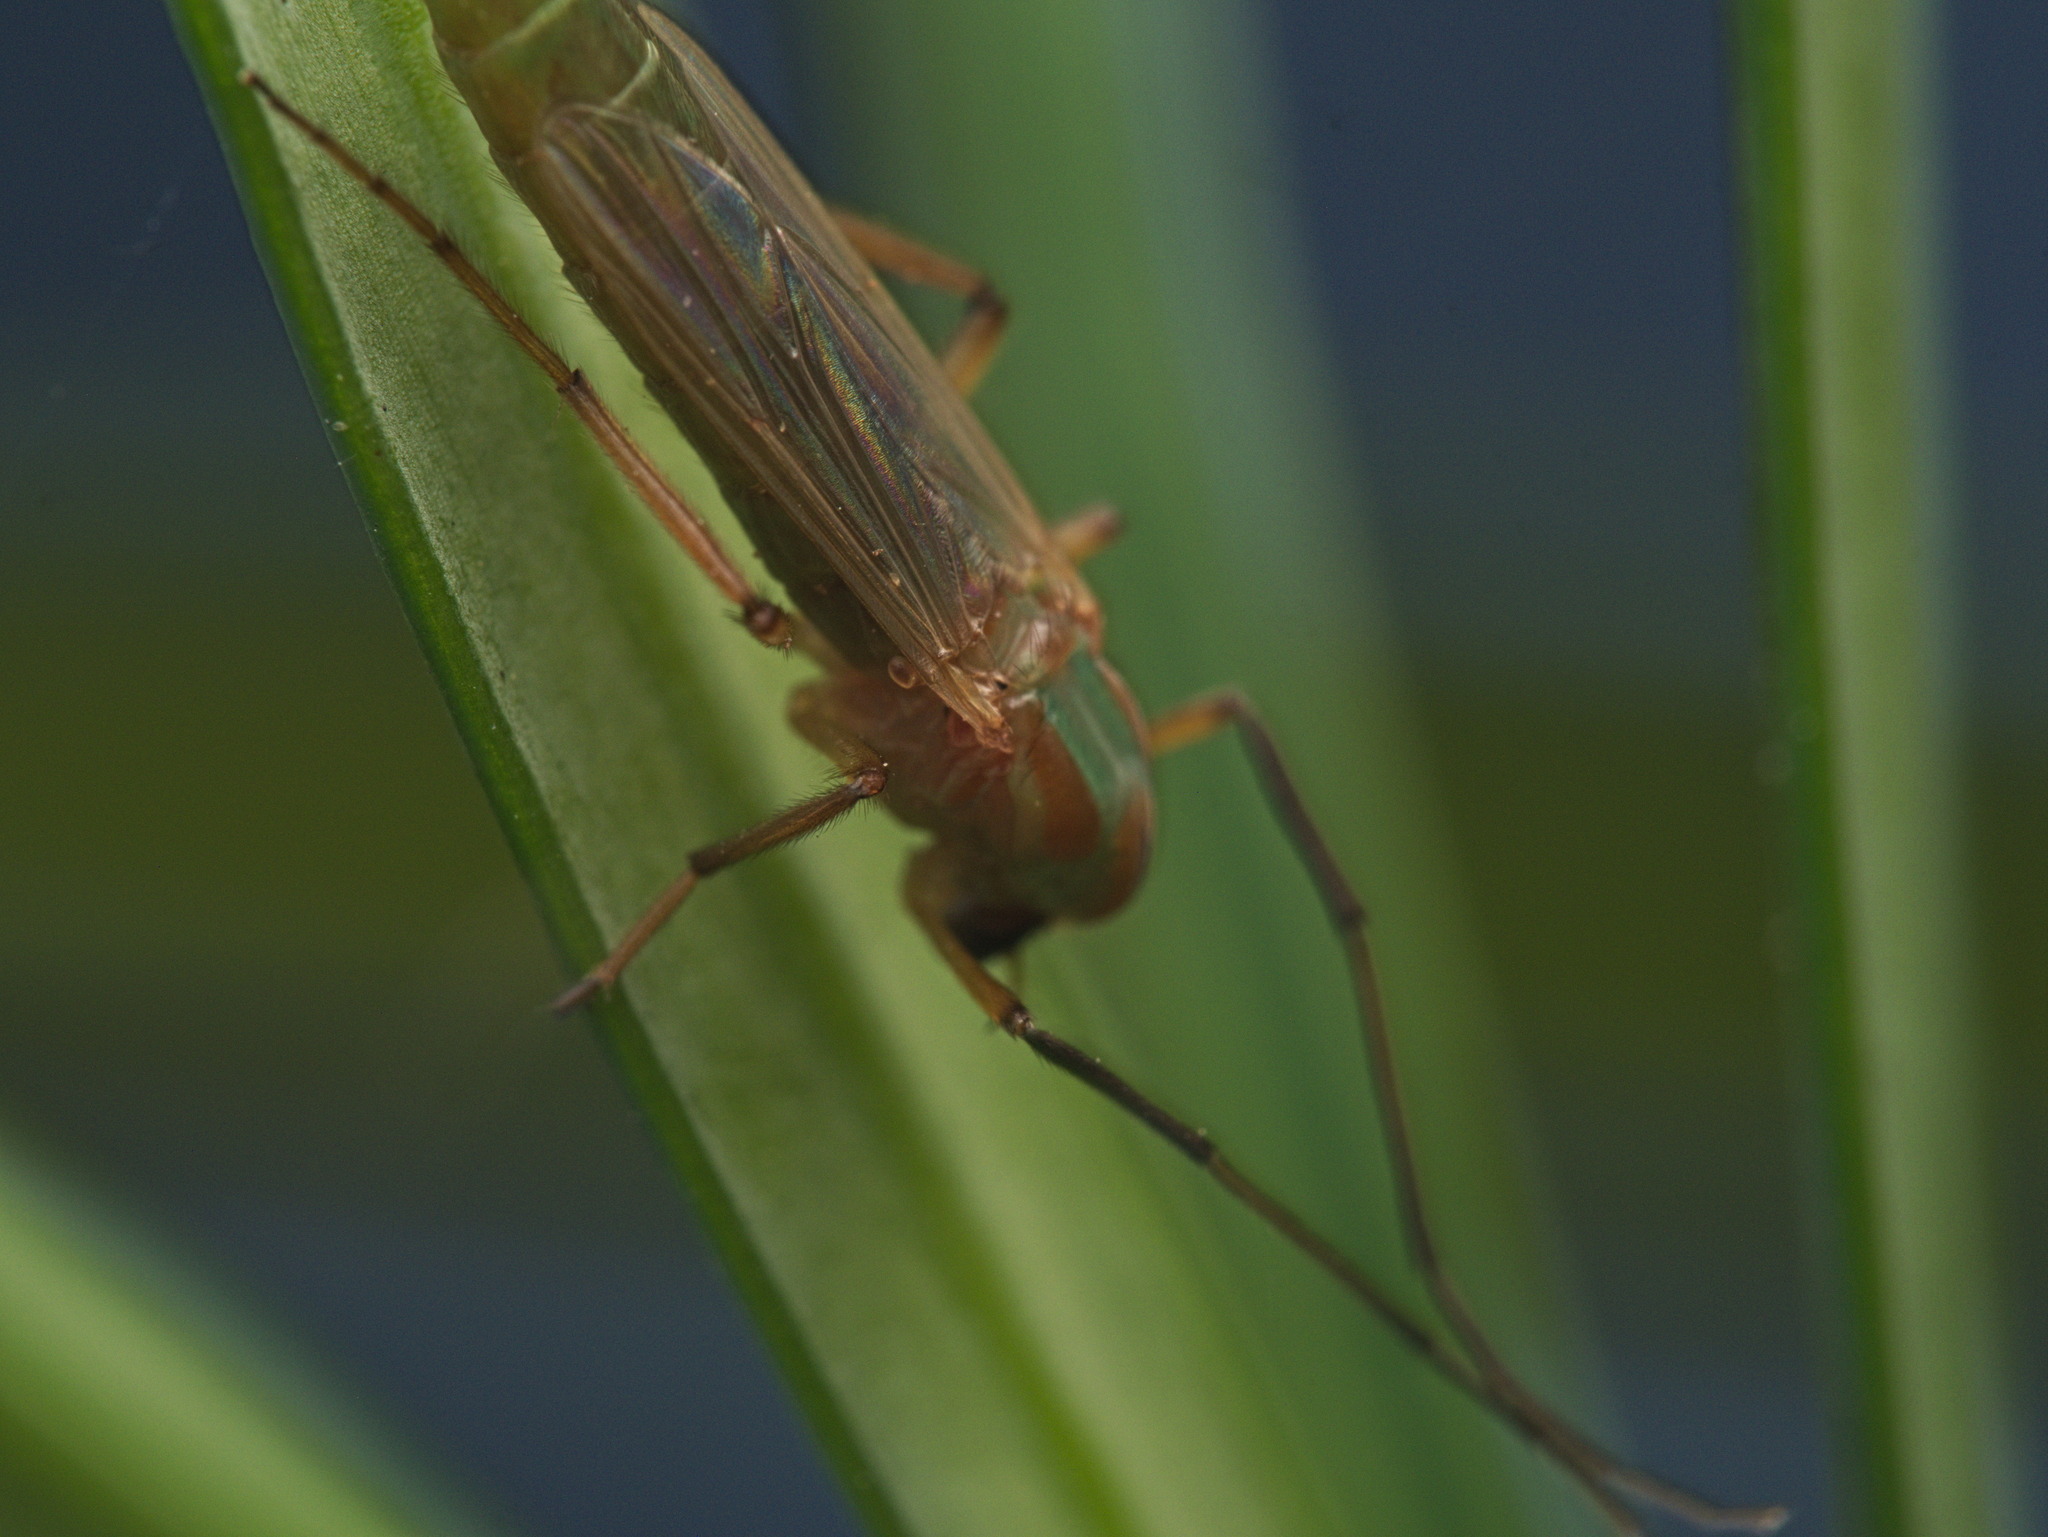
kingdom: Animalia
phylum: Arthropoda
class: Insecta
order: Diptera
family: Chironomidae
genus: Axarus
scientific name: Axarus
